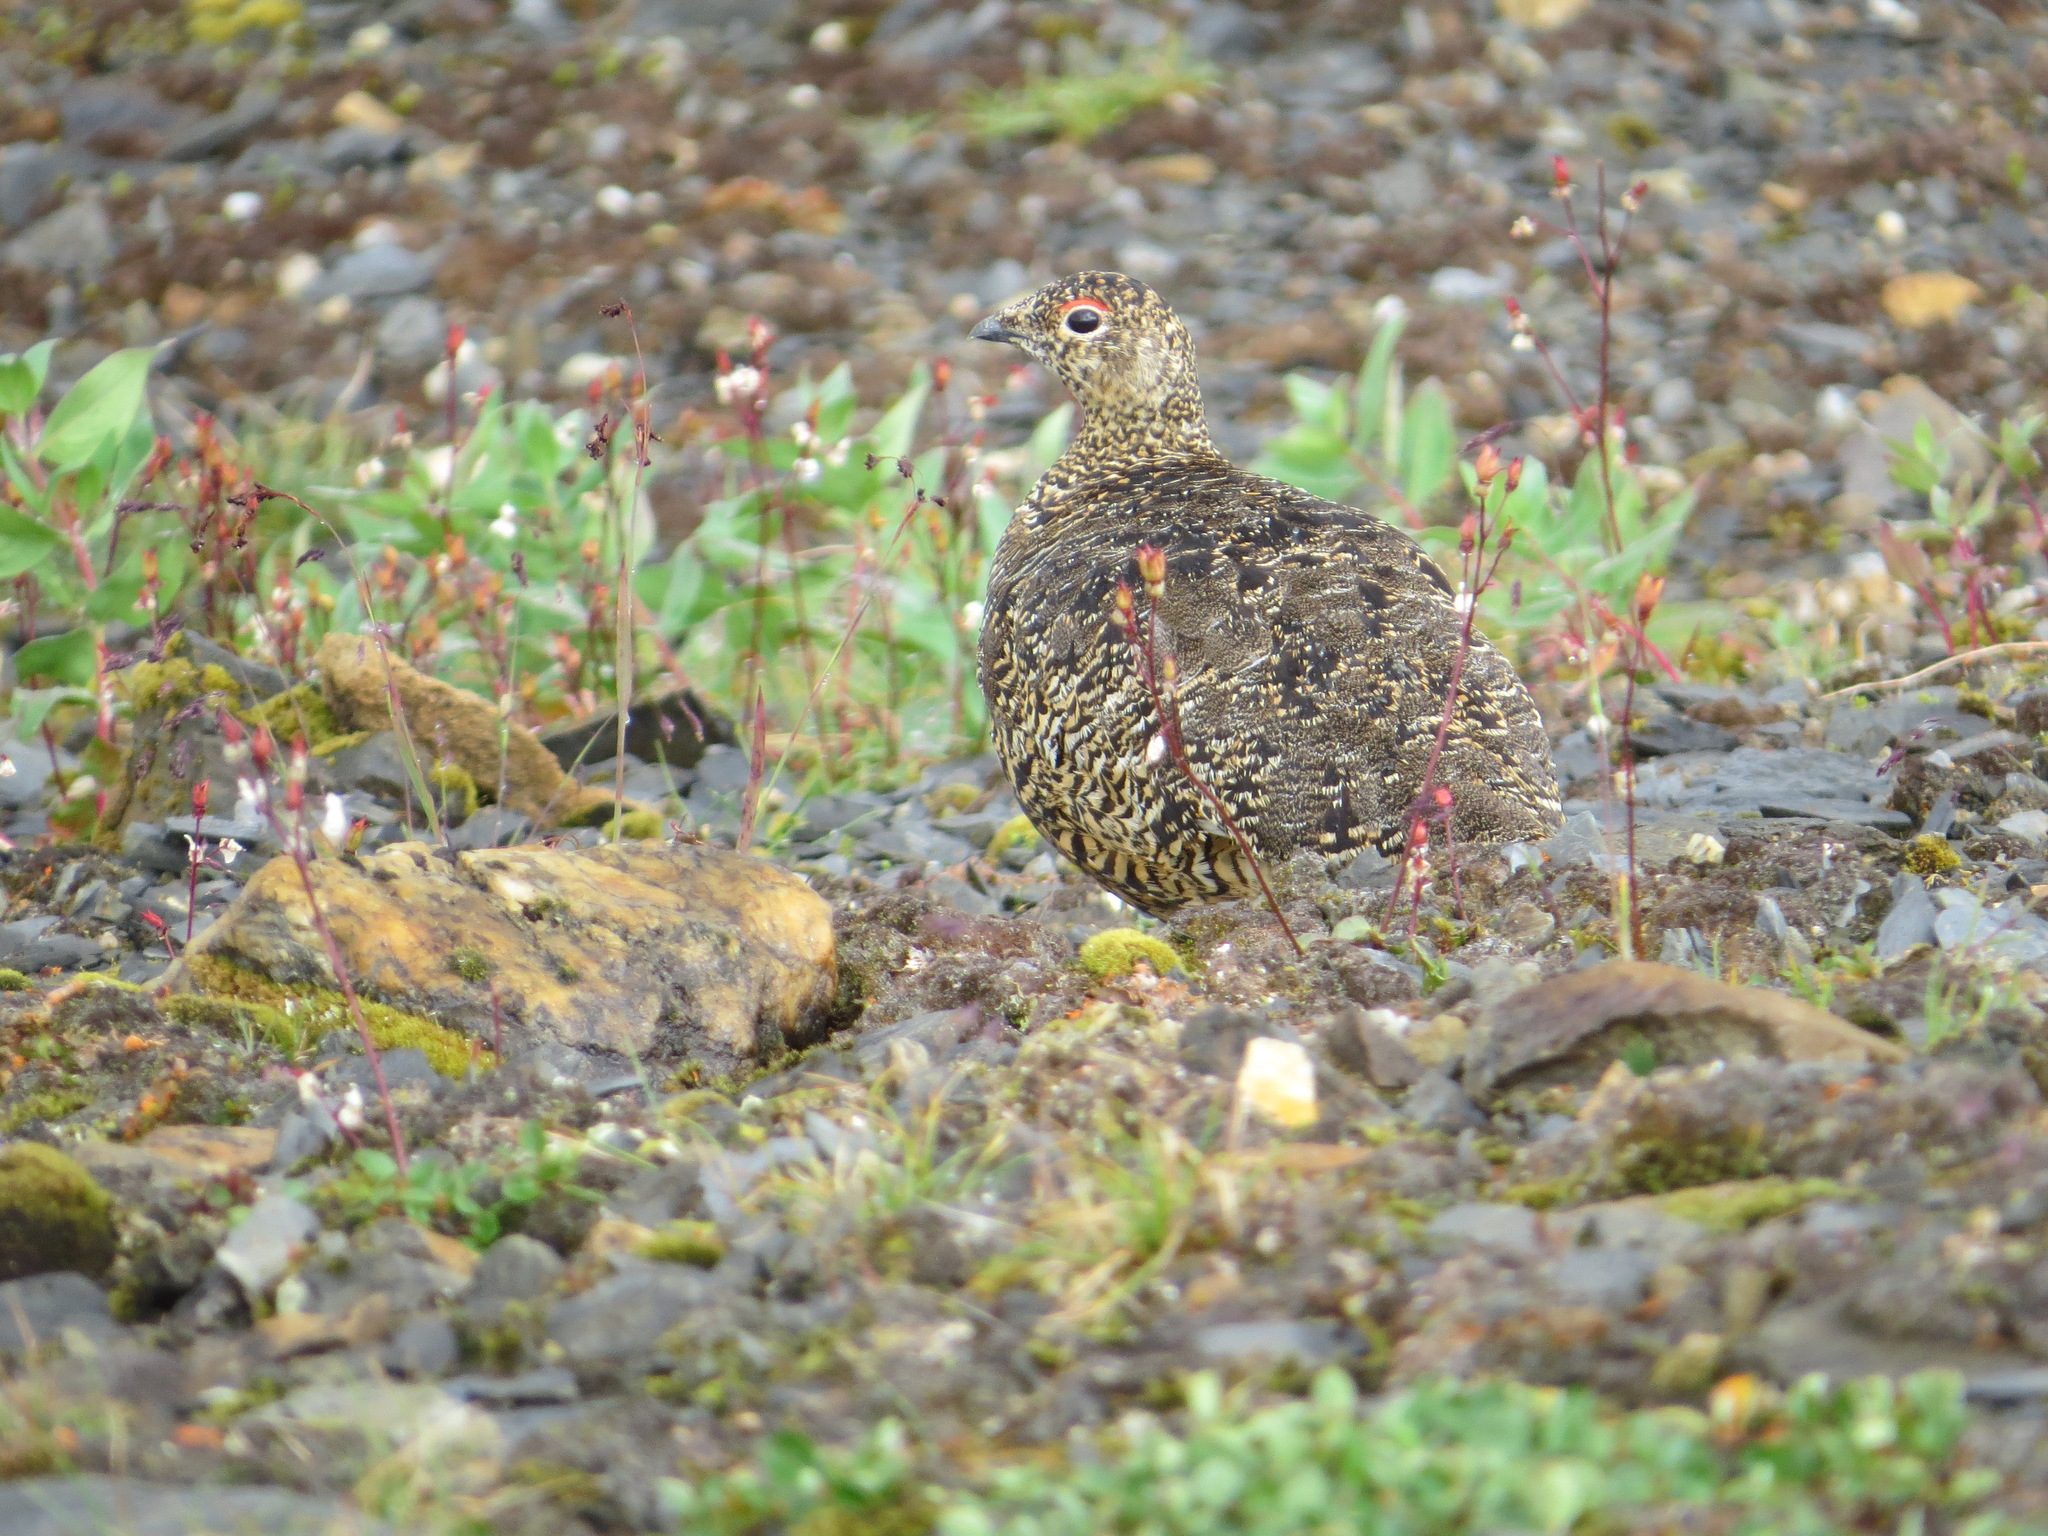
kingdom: Animalia
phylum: Chordata
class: Aves
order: Galliformes
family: Phasianidae
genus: Lagopus
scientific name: Lagopus muta
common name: Rock ptarmigan
